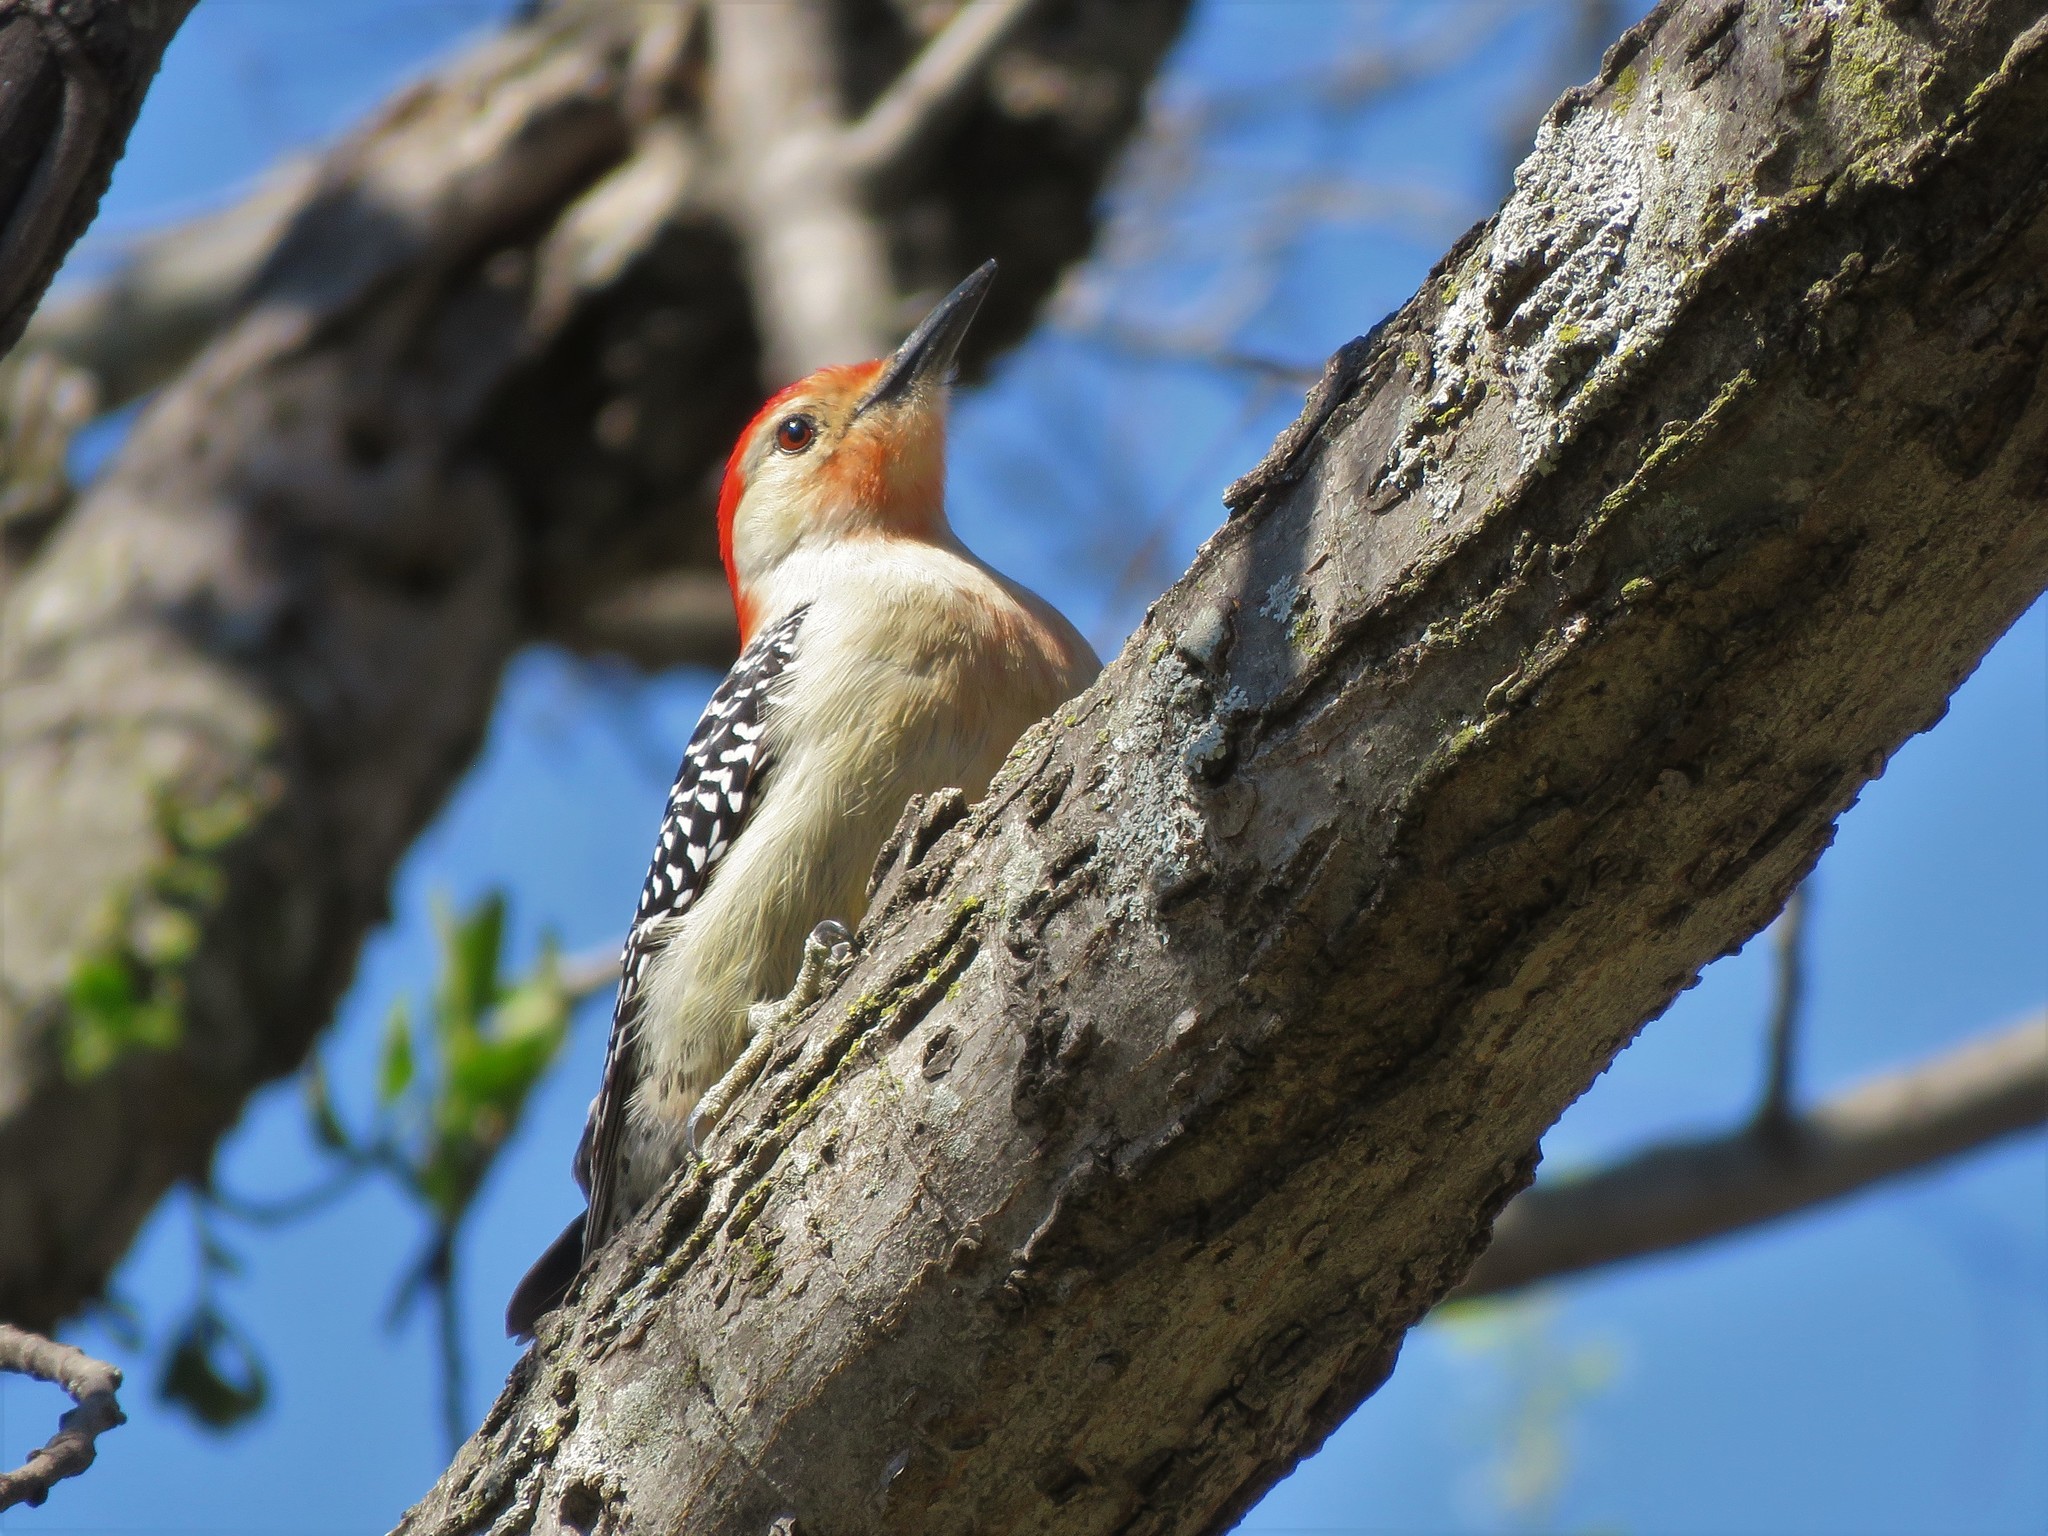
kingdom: Animalia
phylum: Chordata
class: Aves
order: Piciformes
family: Picidae
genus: Melanerpes
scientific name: Melanerpes carolinus
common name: Red-bellied woodpecker
